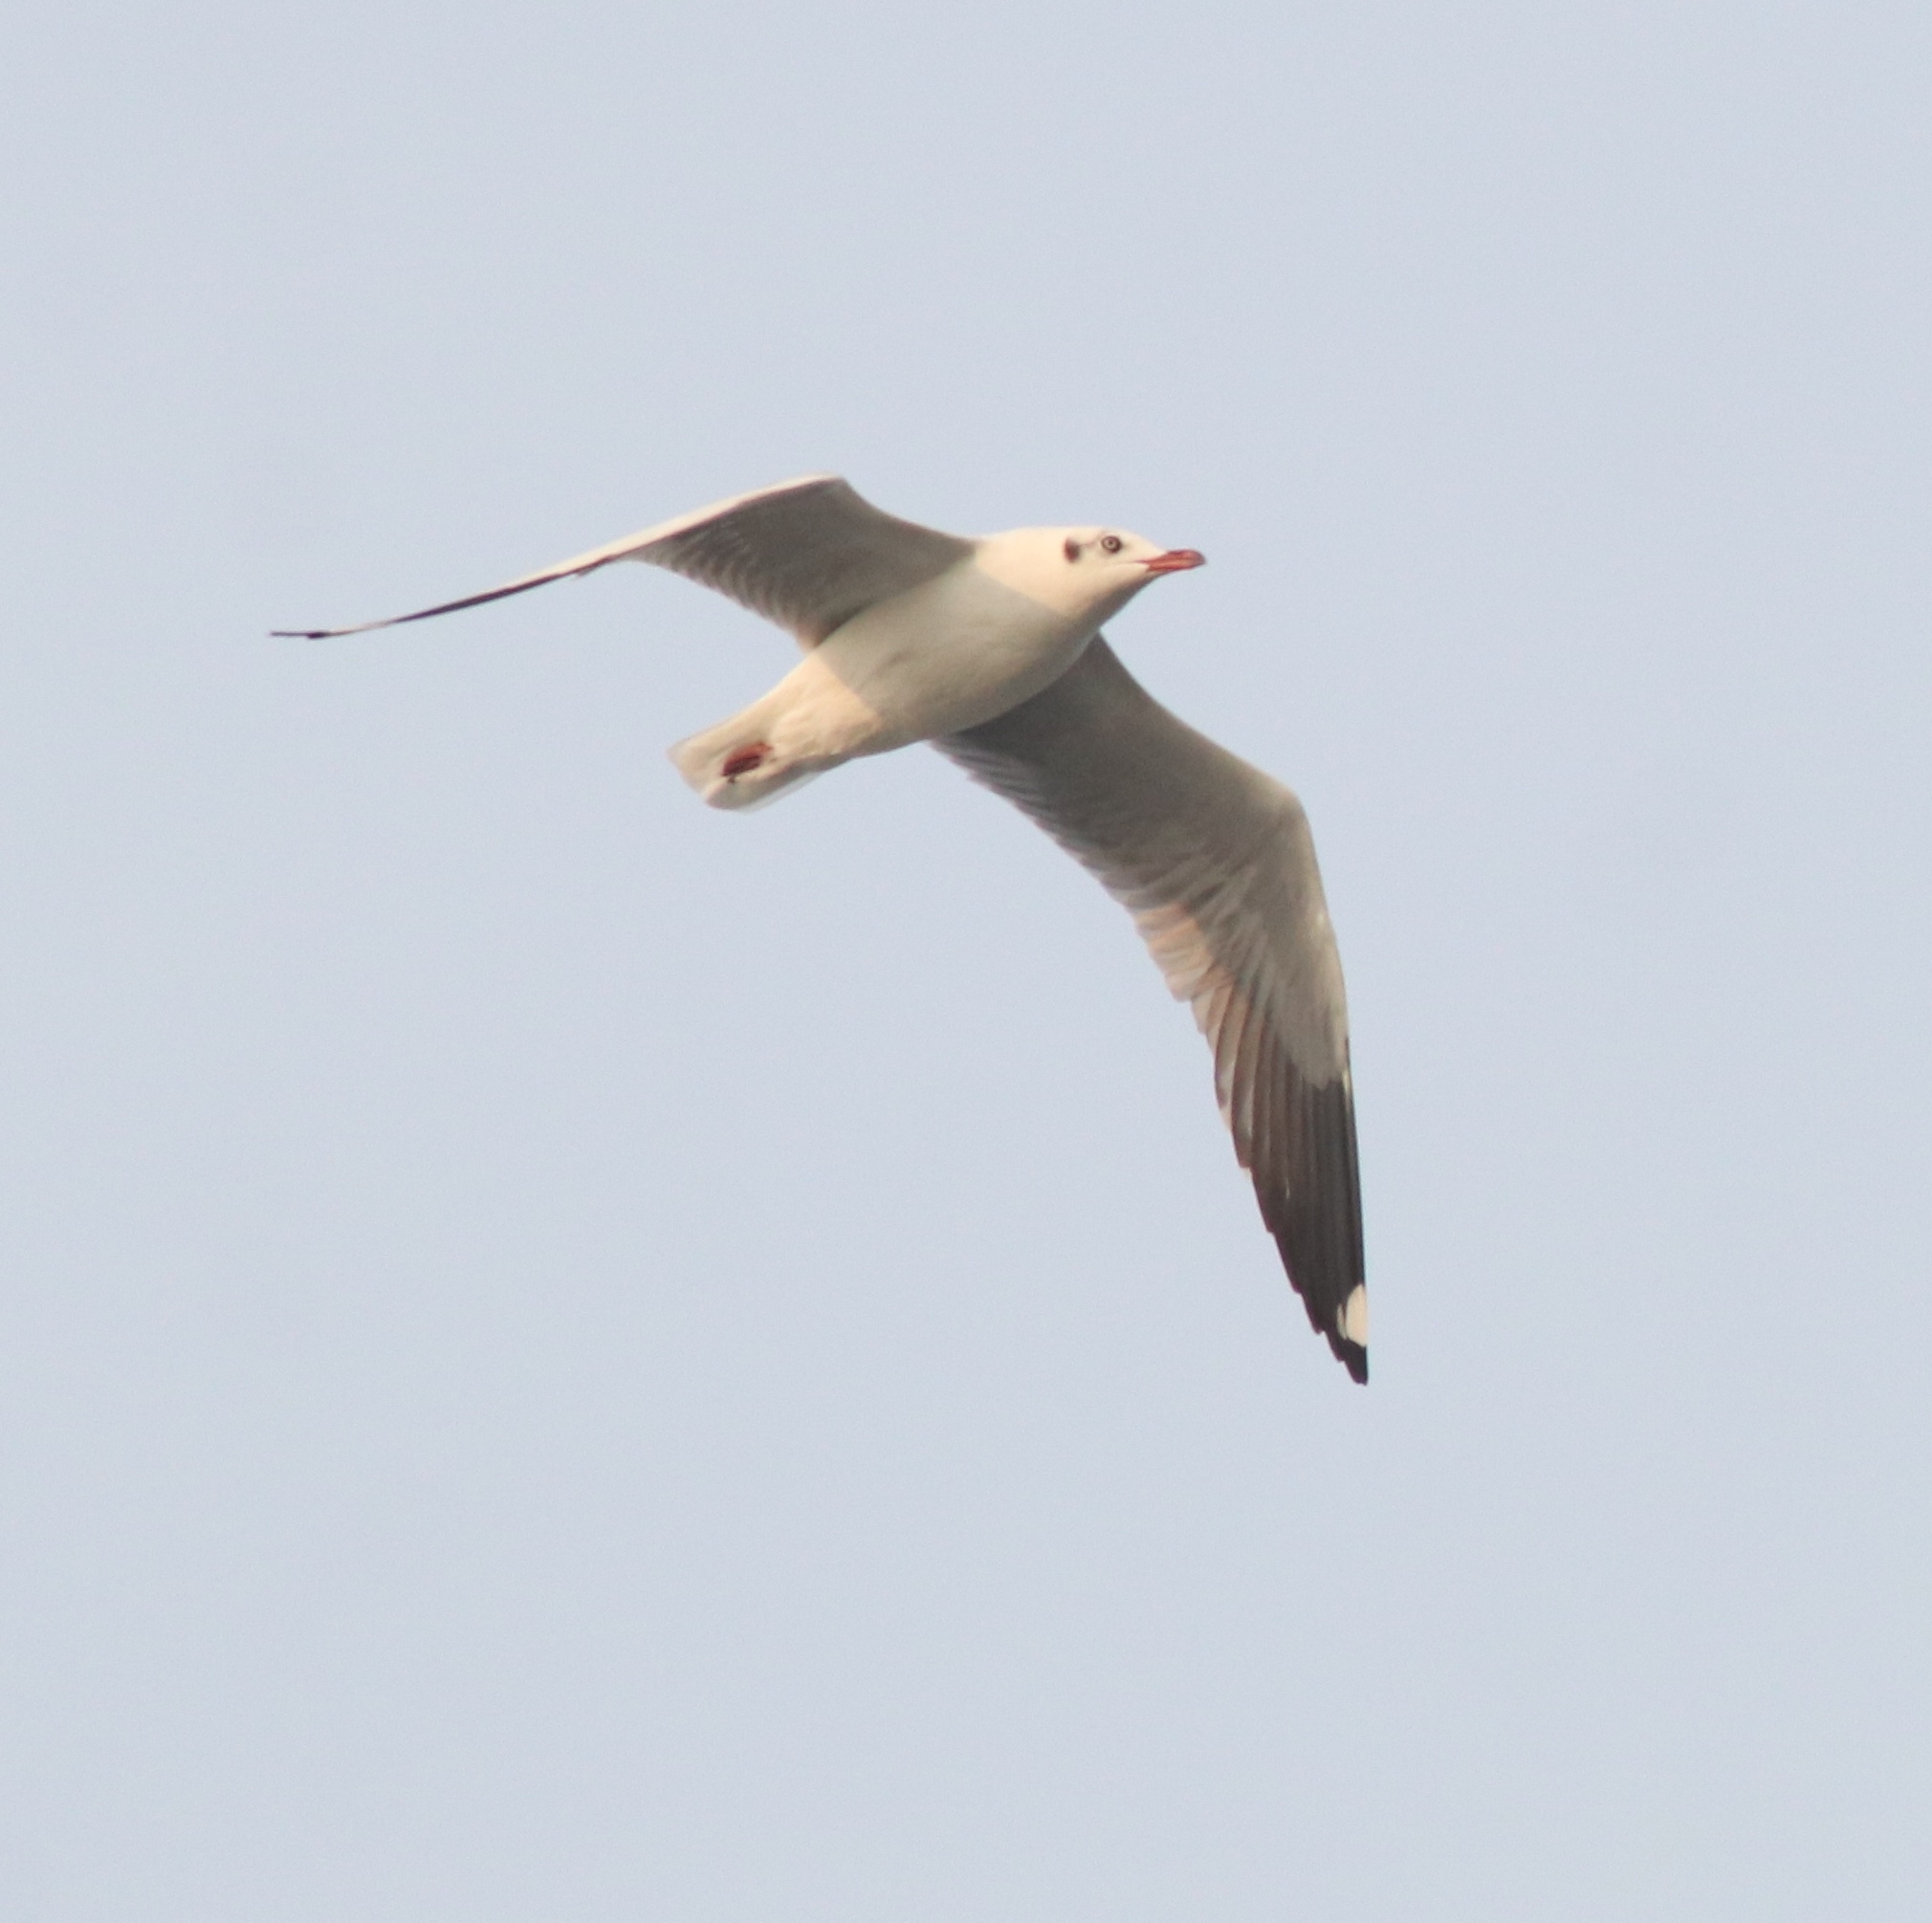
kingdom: Animalia
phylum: Chordata
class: Aves
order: Charadriiformes
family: Laridae
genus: Chroicocephalus
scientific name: Chroicocephalus brunnicephalus
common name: Brown-headed gull
